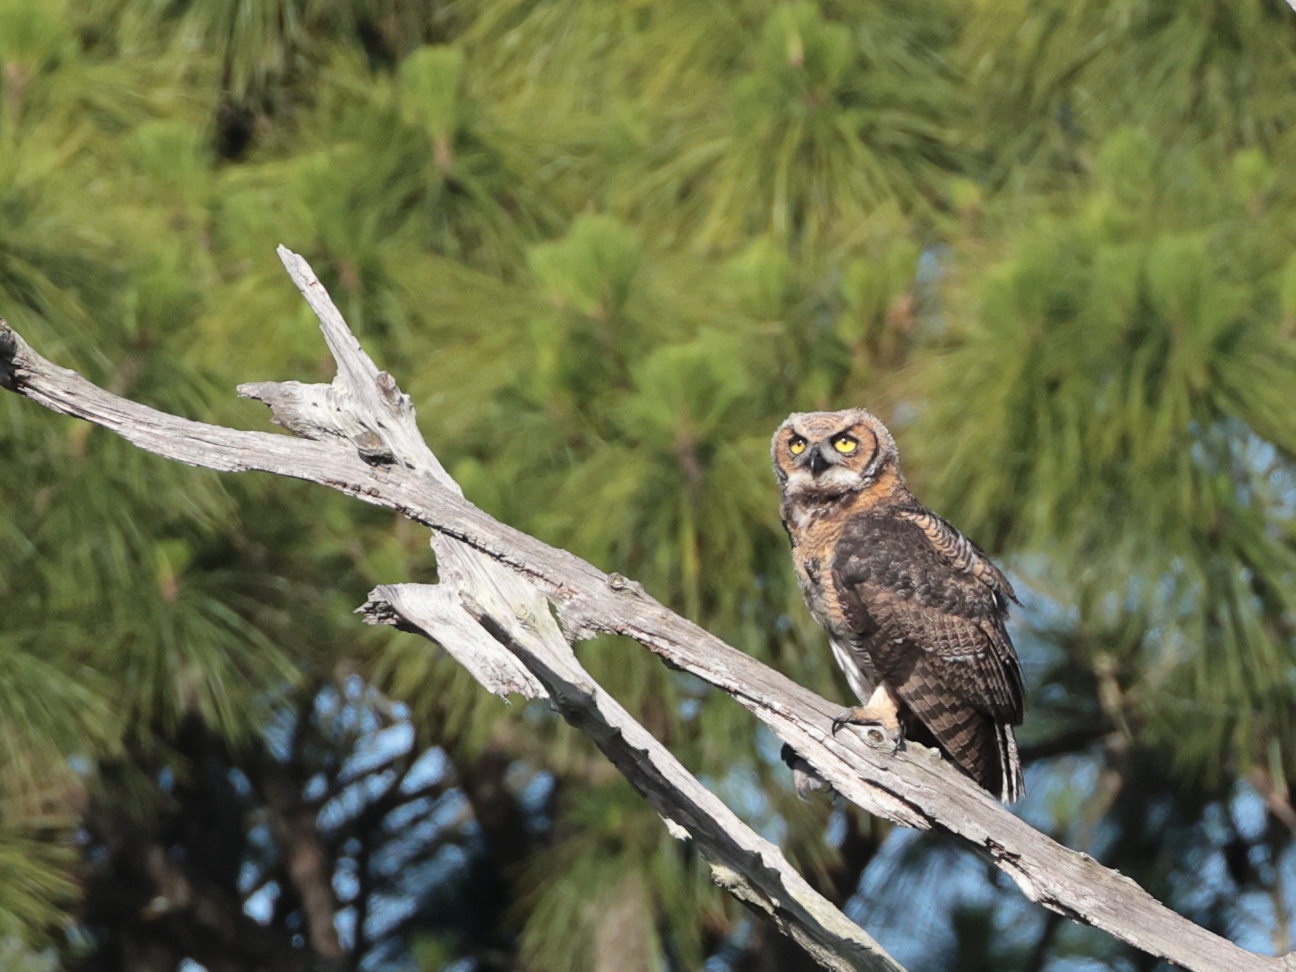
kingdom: Animalia
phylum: Chordata
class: Aves
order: Strigiformes
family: Strigidae
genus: Bubo
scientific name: Bubo virginianus
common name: Great horned owl
